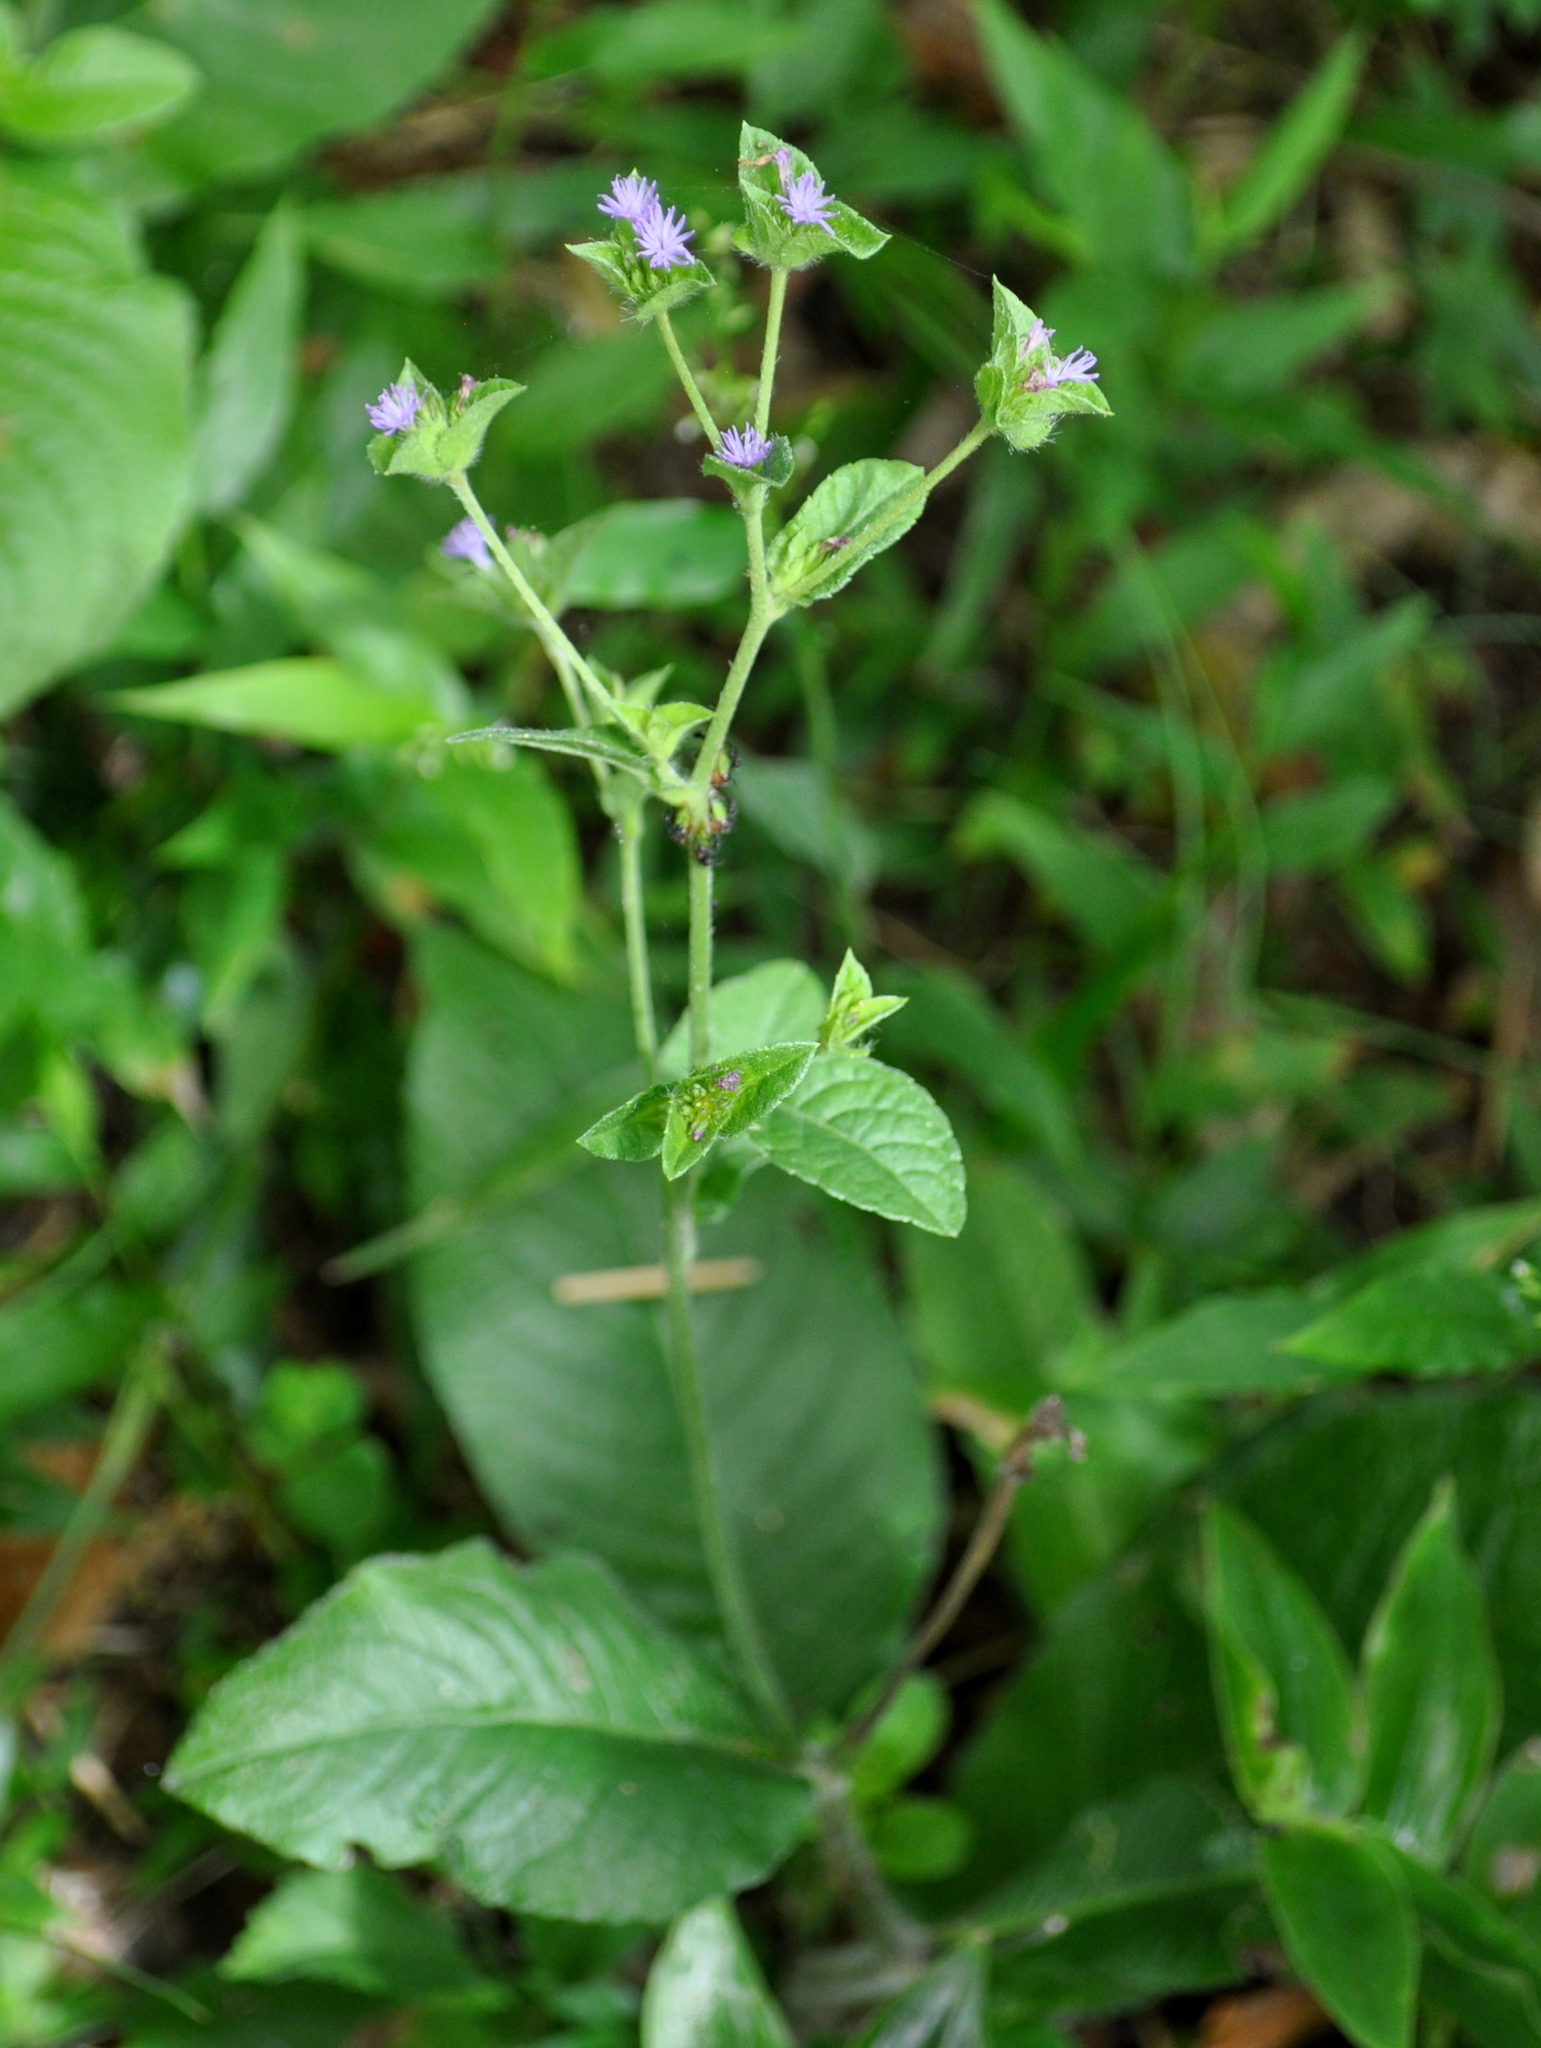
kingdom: Plantae
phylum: Tracheophyta
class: Magnoliopsida
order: Asterales
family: Asteraceae
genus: Elephantopus
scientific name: Elephantopus mollis
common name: Soft elephantsfoot
